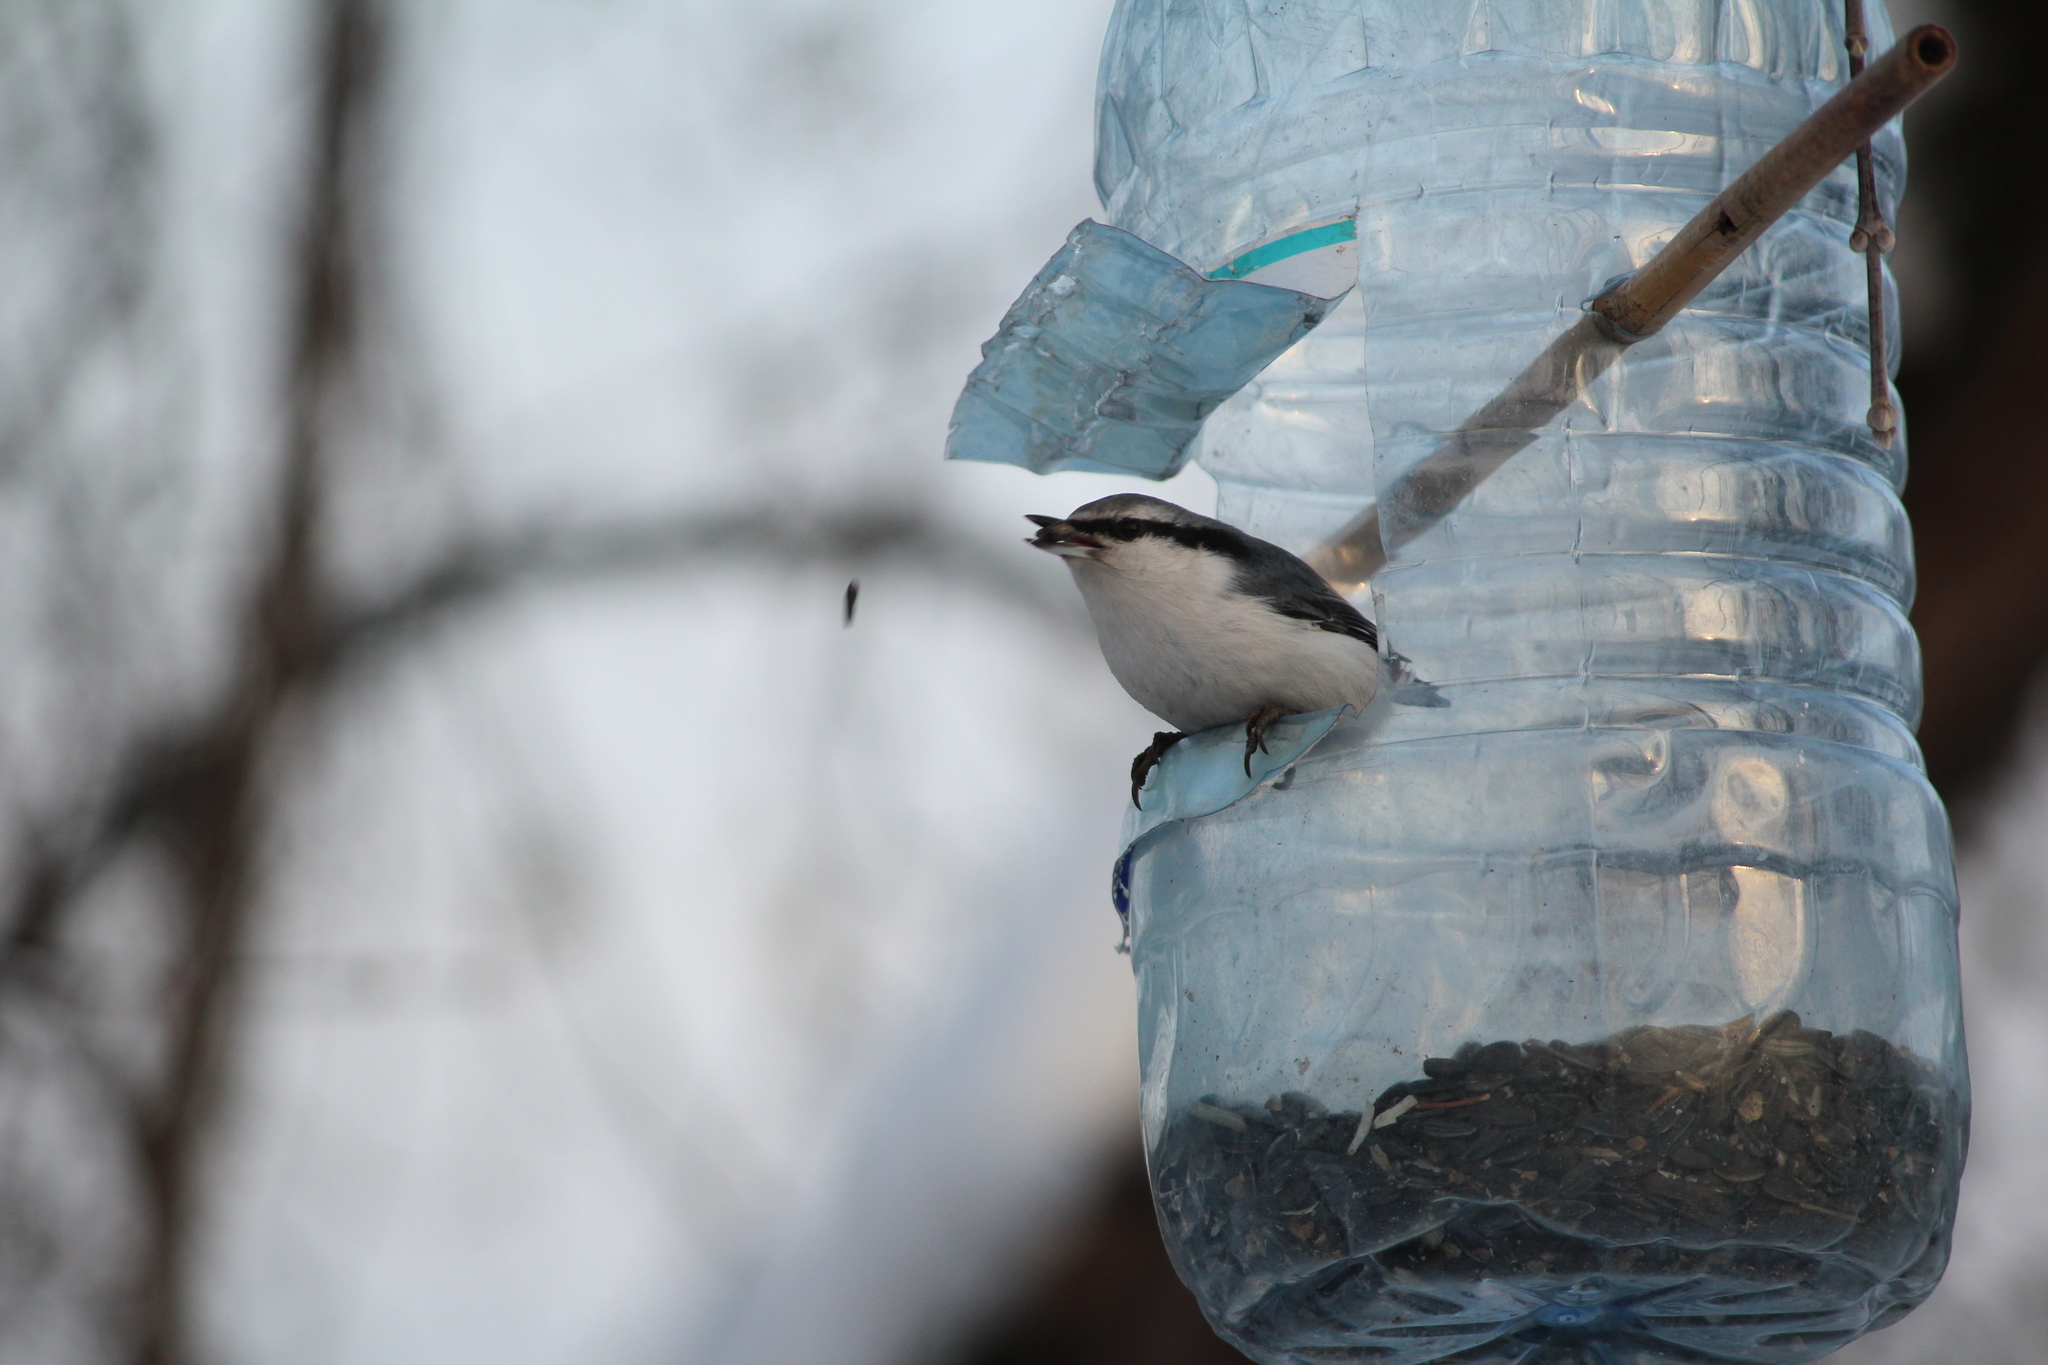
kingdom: Animalia
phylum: Chordata
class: Aves
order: Passeriformes
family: Sittidae
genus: Sitta
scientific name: Sitta europaea
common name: Eurasian nuthatch
